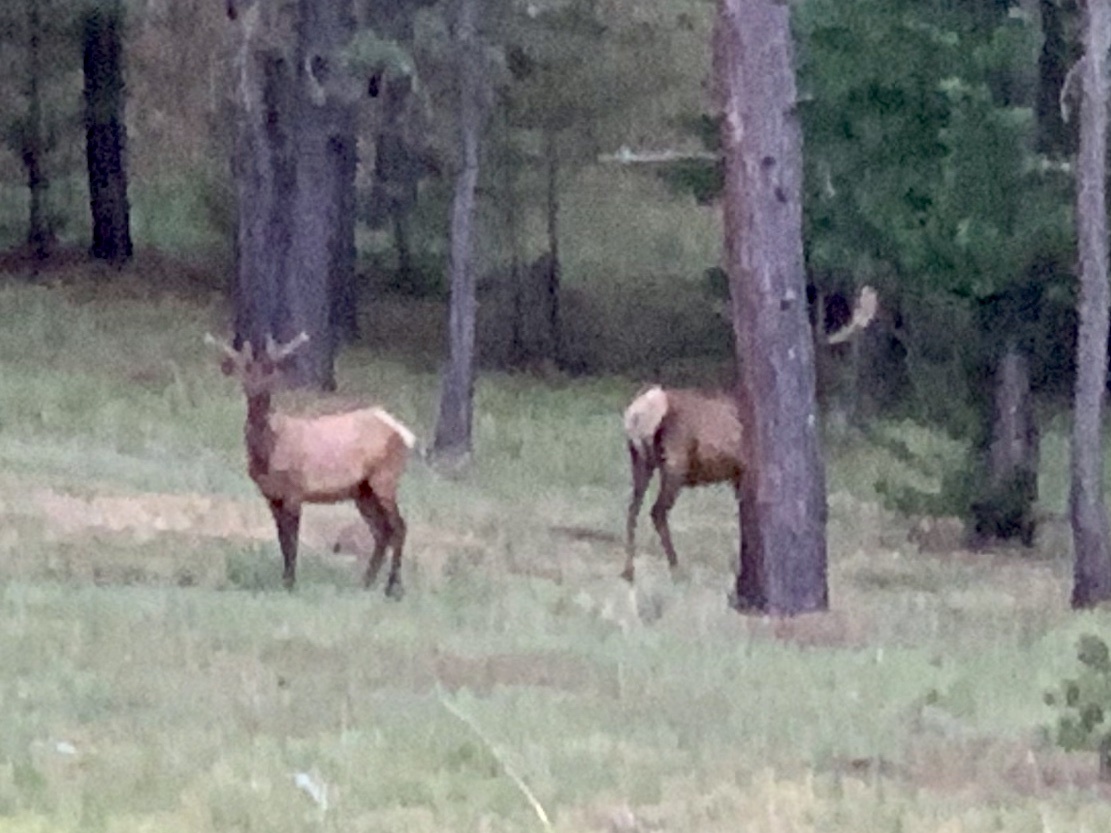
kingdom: Animalia
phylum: Chordata
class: Mammalia
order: Artiodactyla
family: Cervidae
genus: Cervus
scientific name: Cervus elaphus
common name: Red deer
